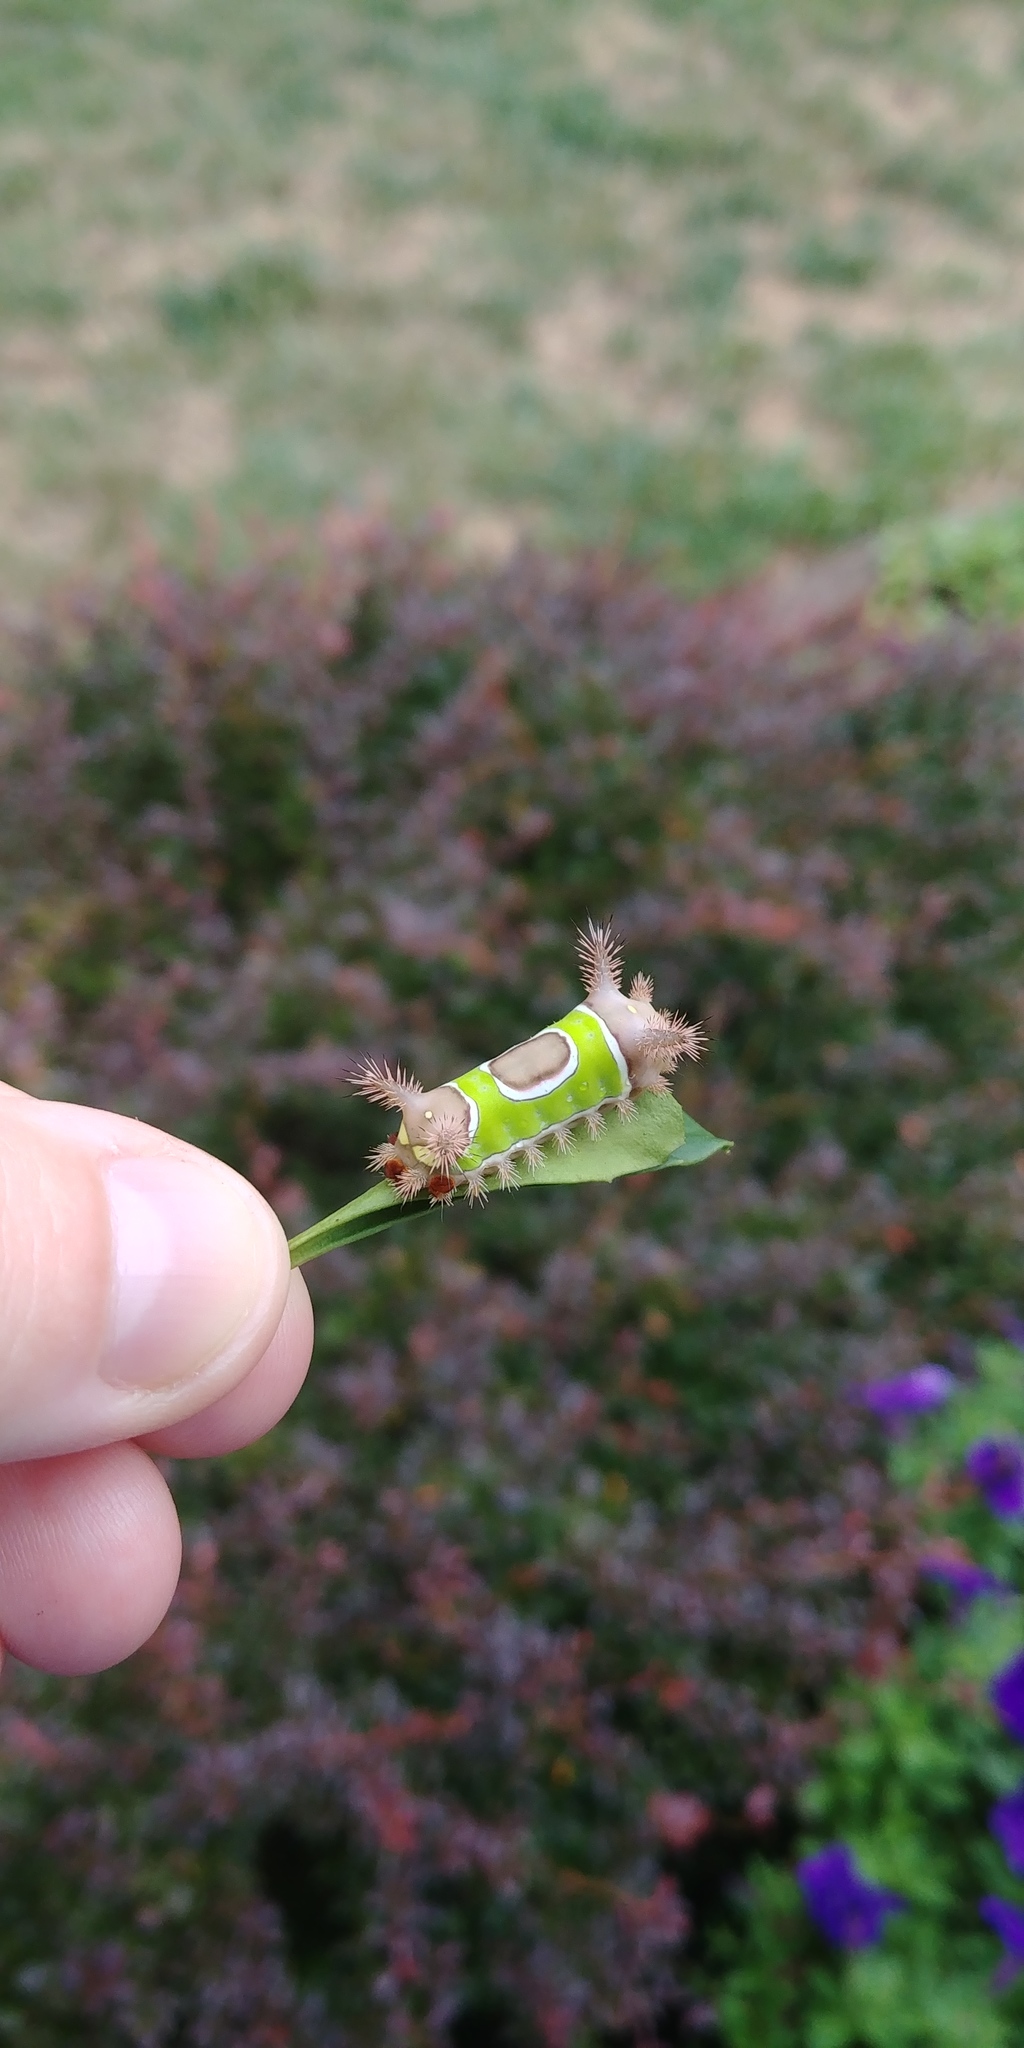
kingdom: Animalia
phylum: Arthropoda
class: Insecta
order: Lepidoptera
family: Limacodidae
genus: Acharia
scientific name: Acharia stimulea
